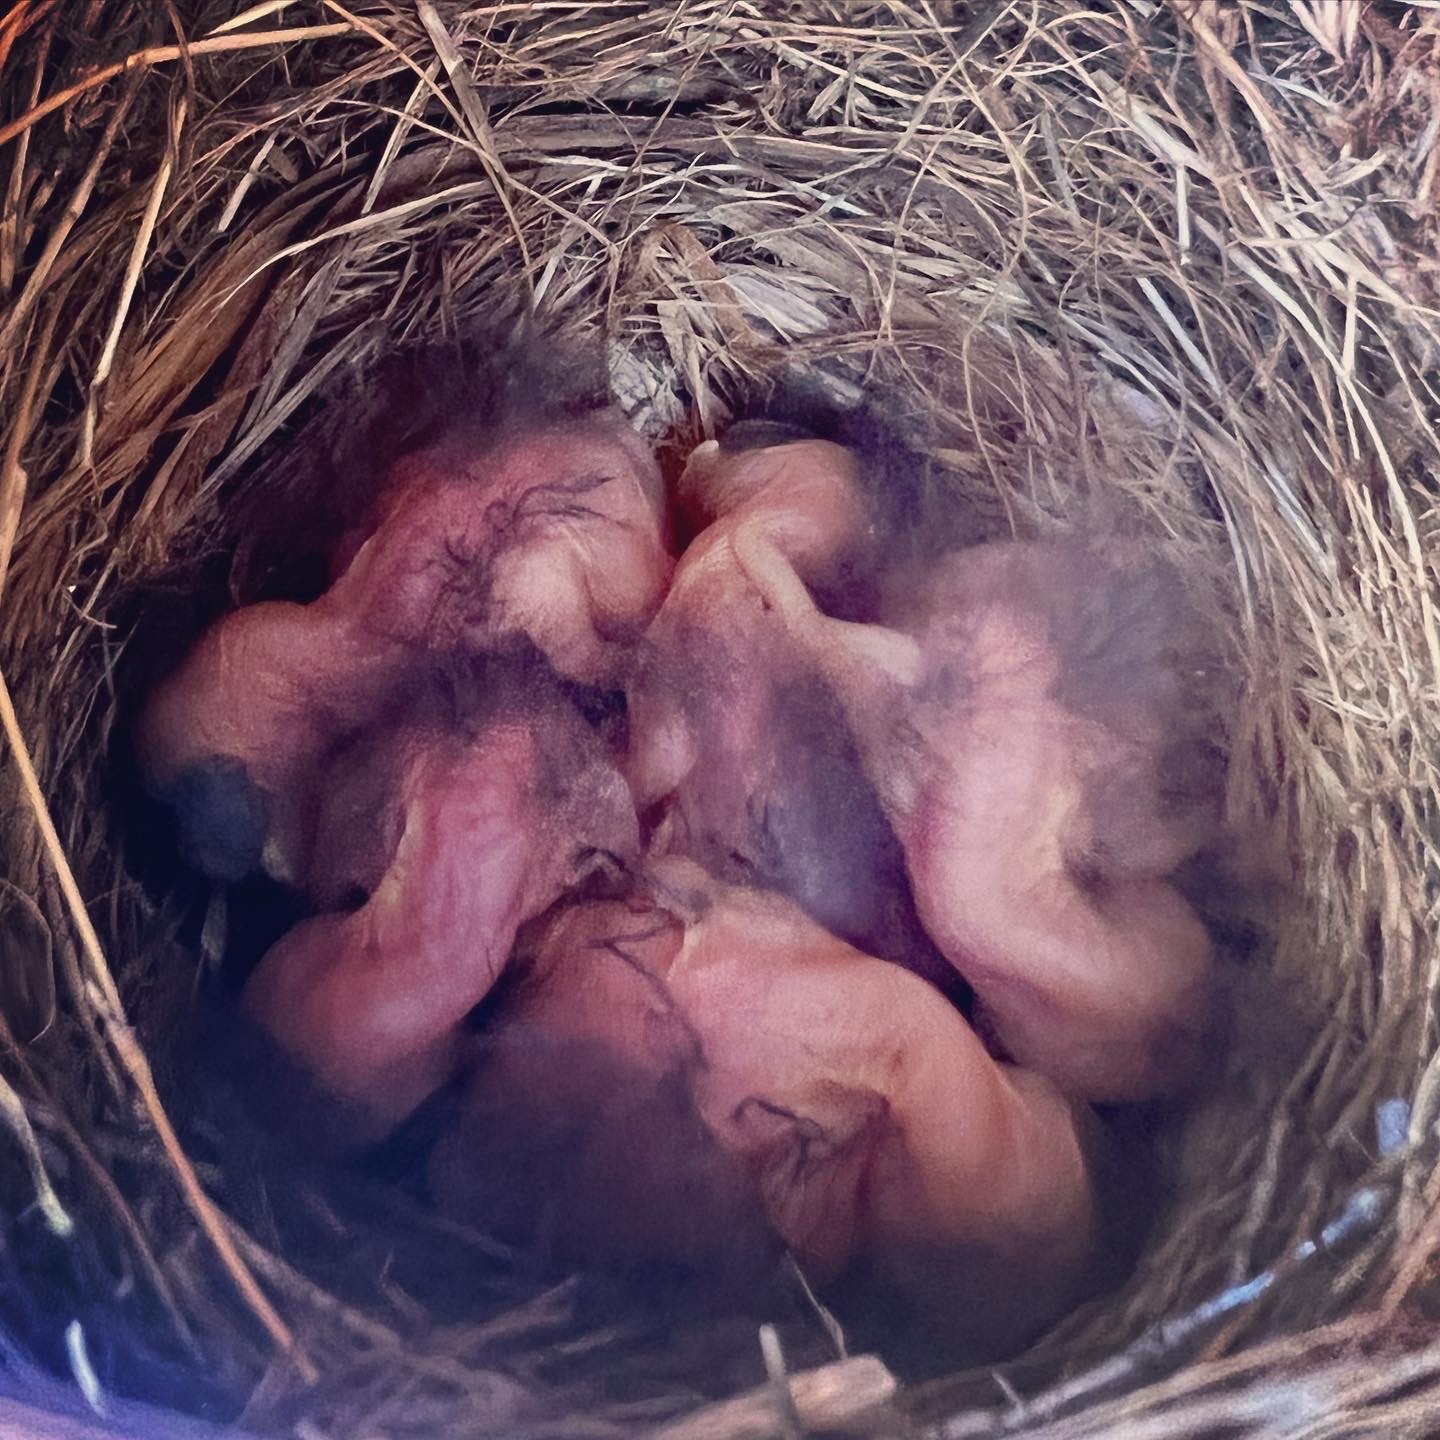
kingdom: Animalia
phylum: Chordata
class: Aves
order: Passeriformes
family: Turdidae
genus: Sialia
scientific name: Sialia sialis
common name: Eastern bluebird
